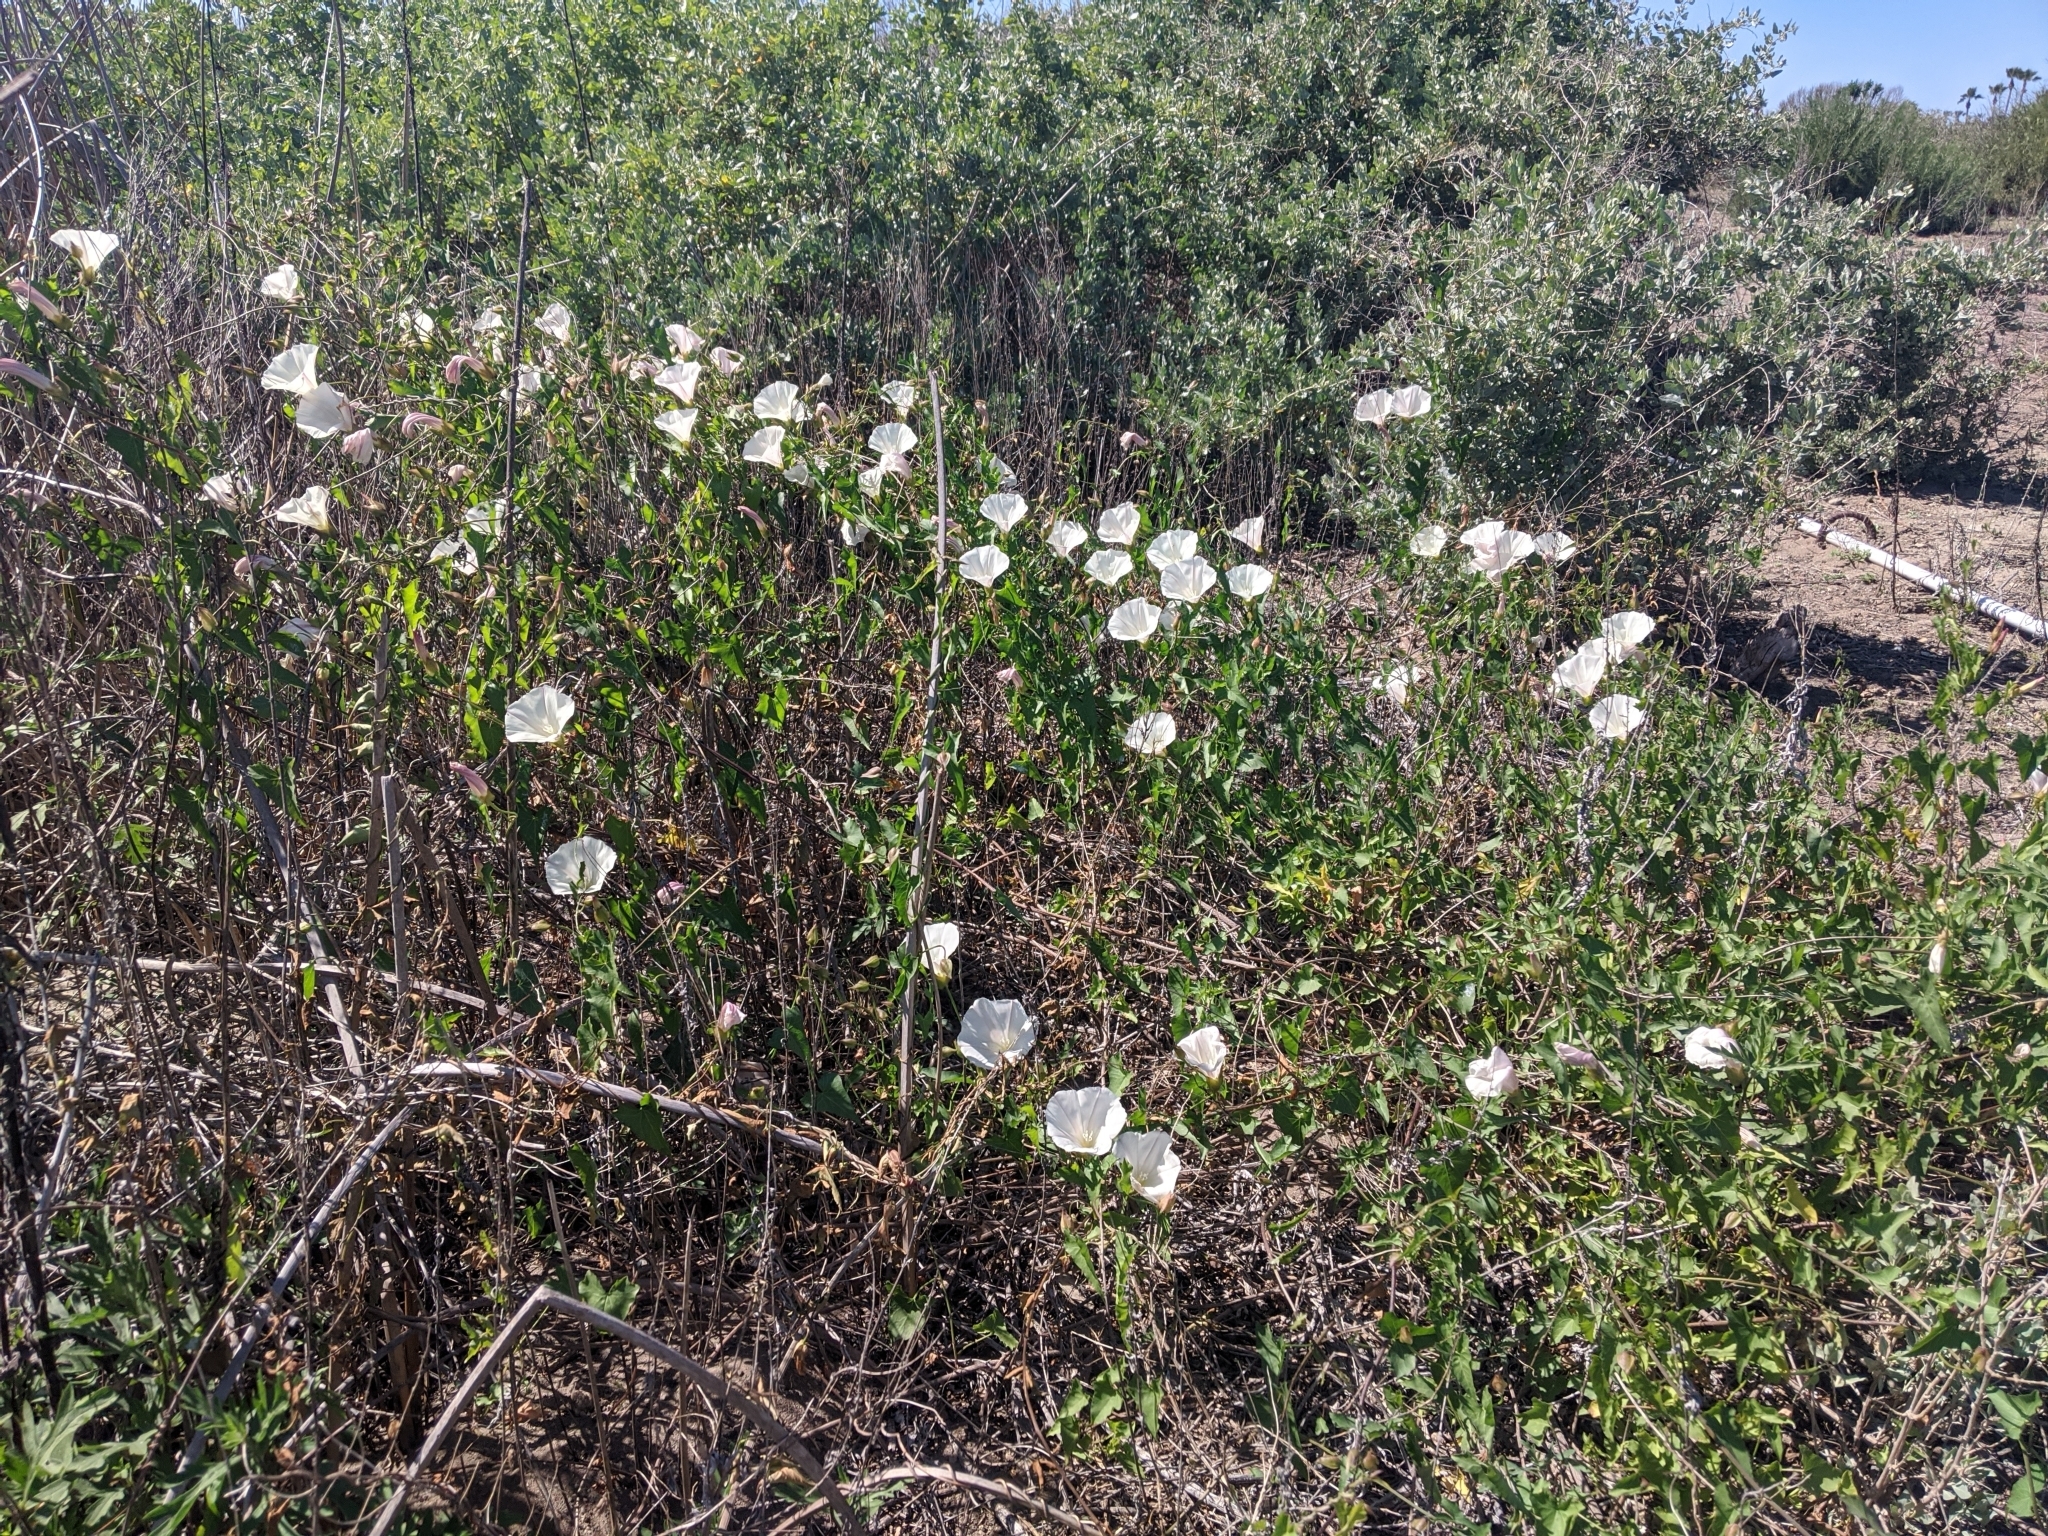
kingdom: Plantae
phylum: Tracheophyta
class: Magnoliopsida
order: Solanales
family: Convolvulaceae
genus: Calystegia
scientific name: Calystegia macrostegia
